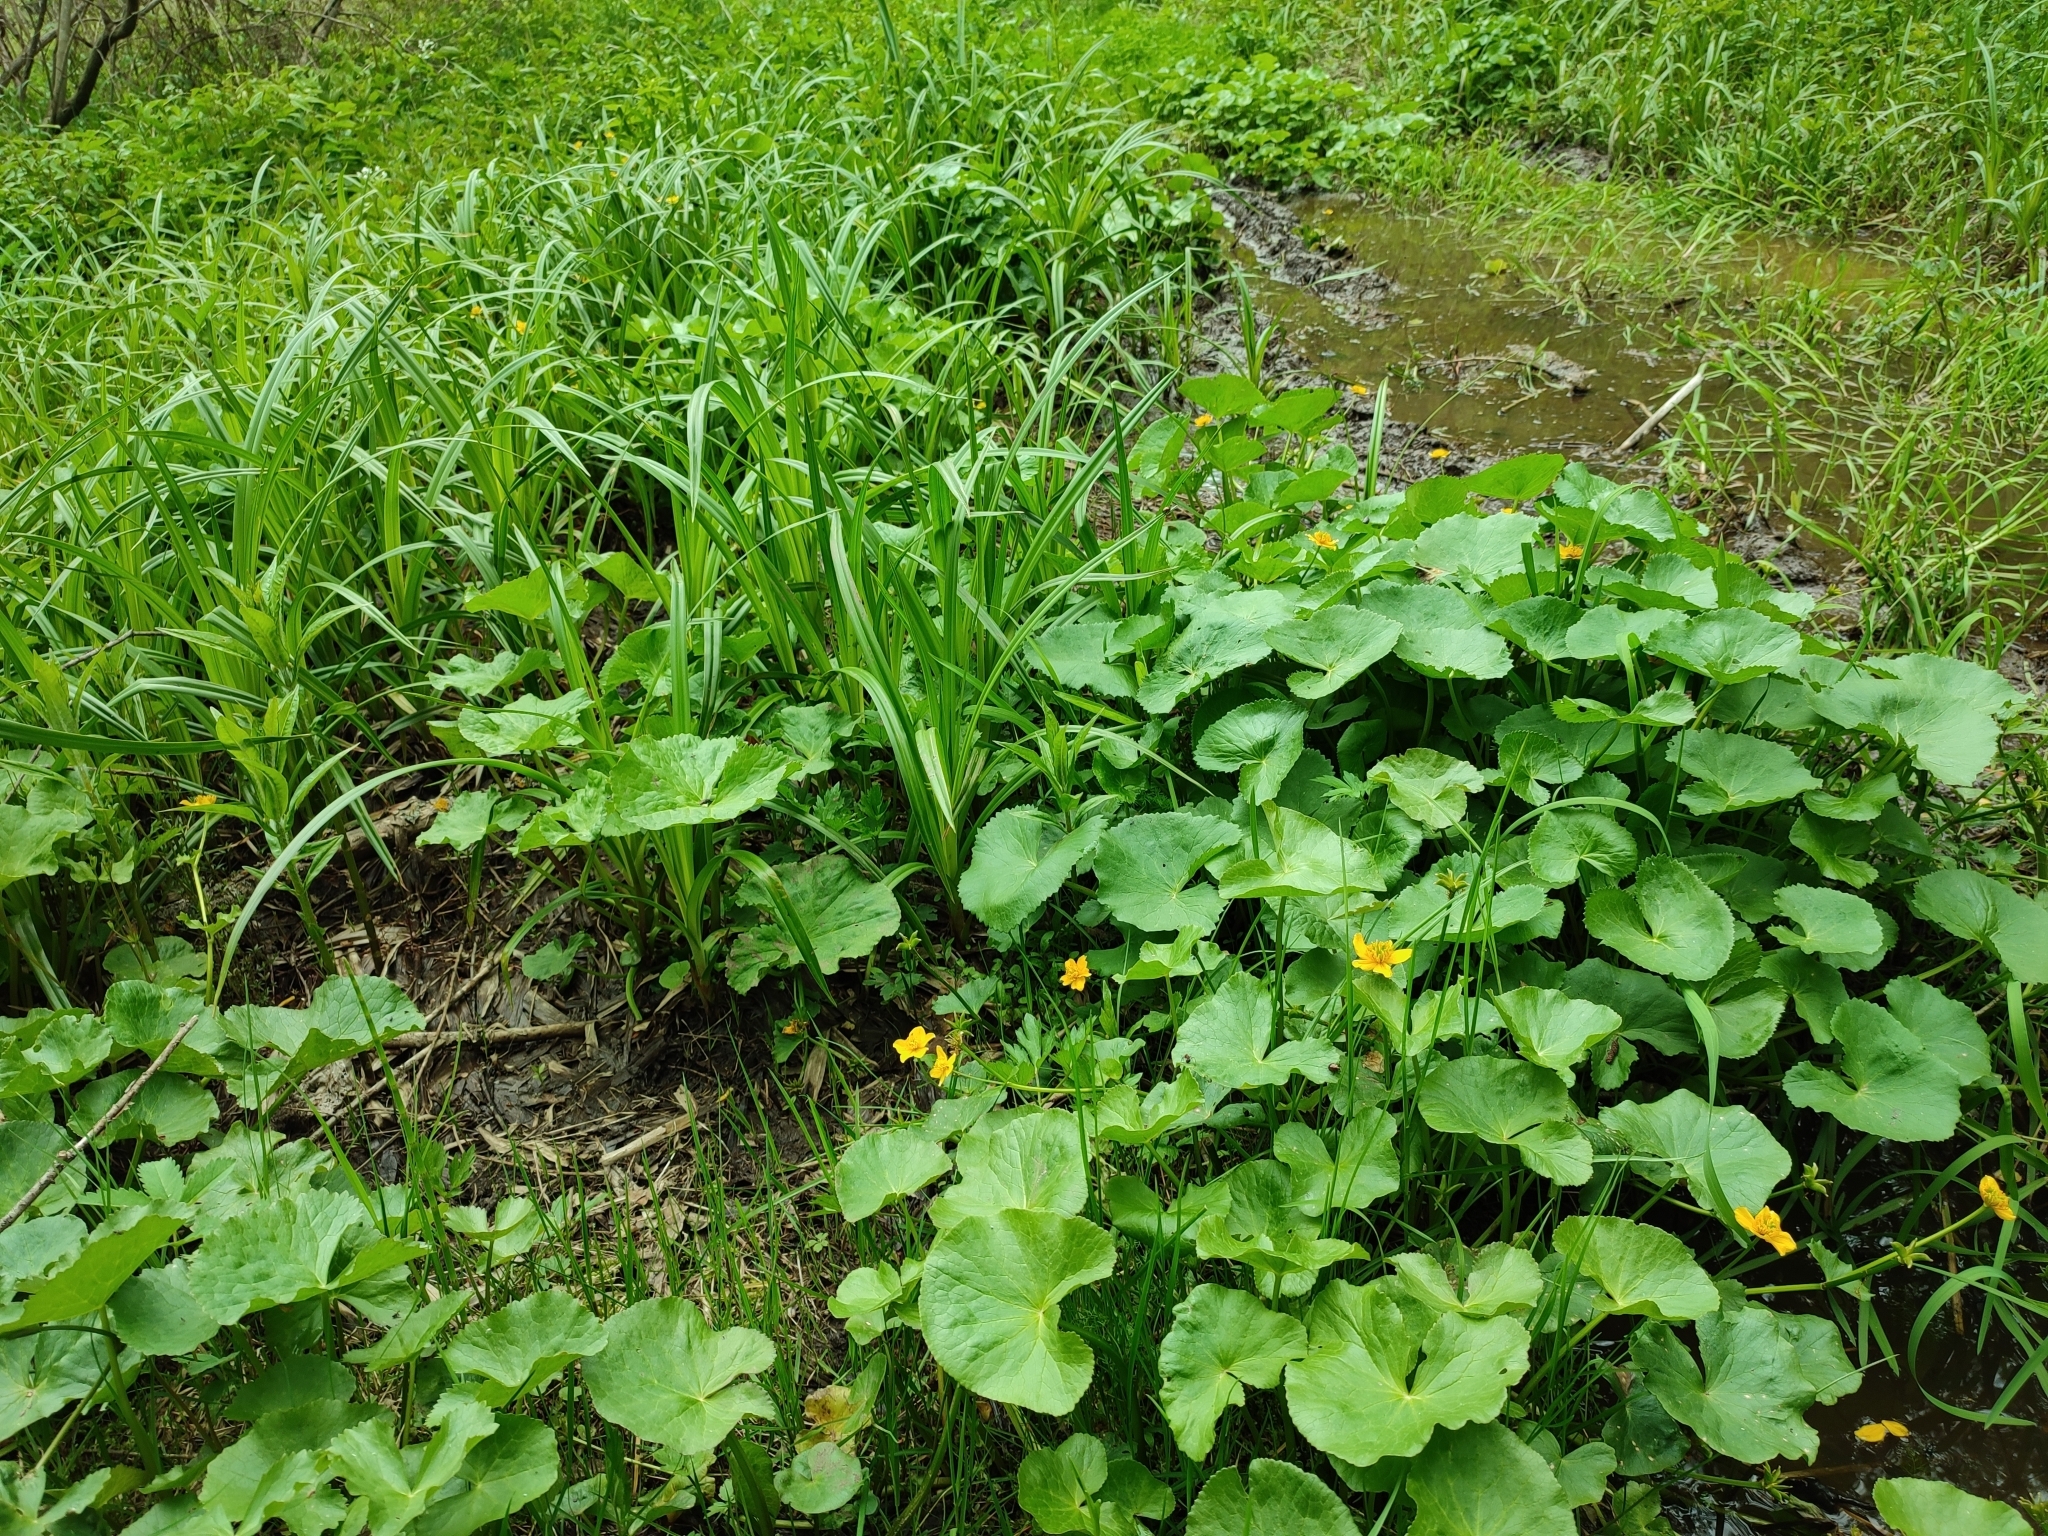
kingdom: Plantae
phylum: Tracheophyta
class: Magnoliopsida
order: Ranunculales
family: Ranunculaceae
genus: Caltha
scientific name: Caltha palustris
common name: Marsh marigold
